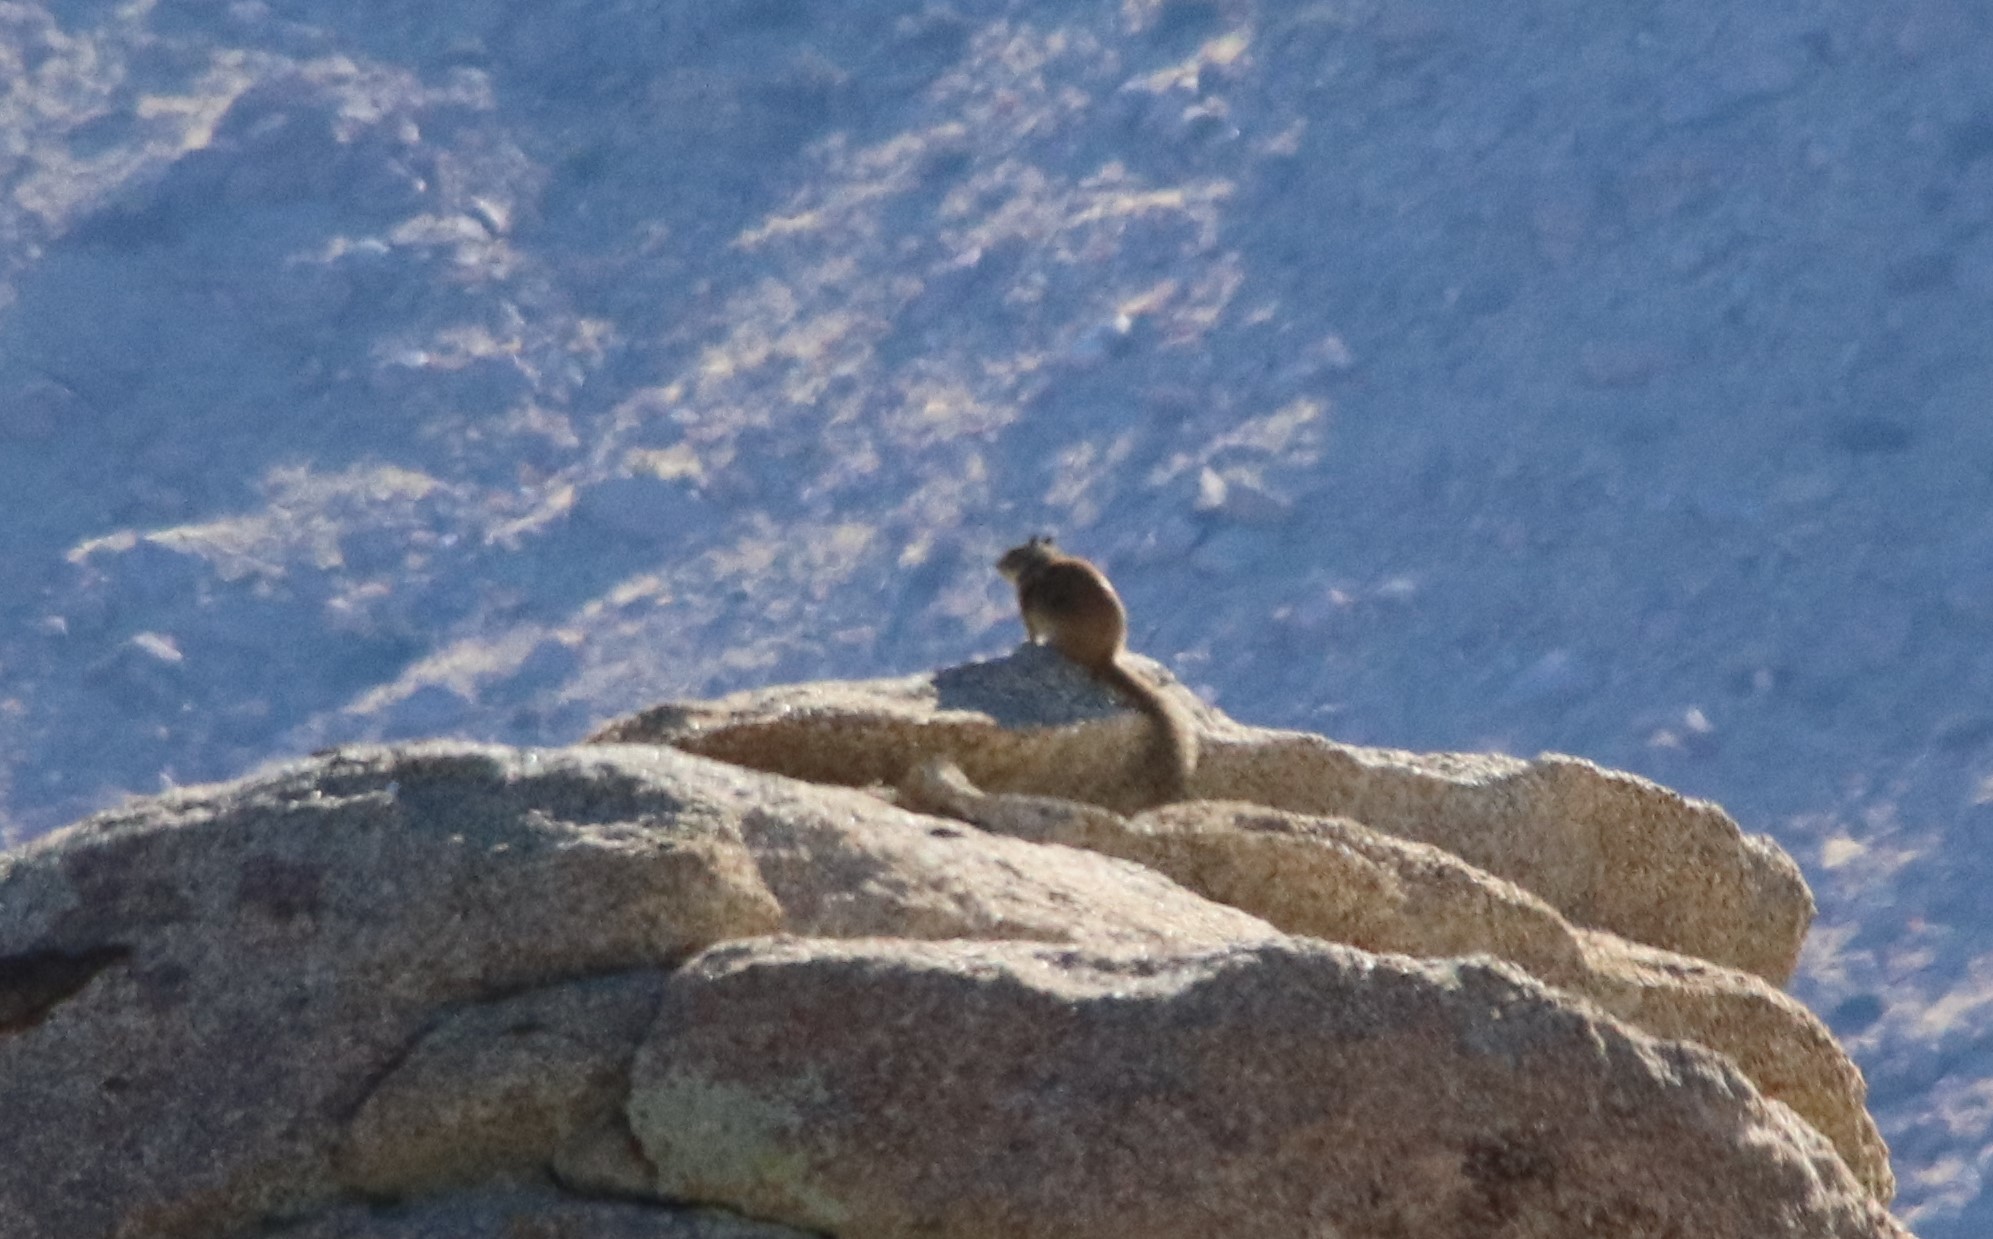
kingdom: Animalia
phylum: Chordata
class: Mammalia
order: Rodentia
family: Sciuridae
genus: Otospermophilus
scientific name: Otospermophilus beecheyi
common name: California ground squirrel
